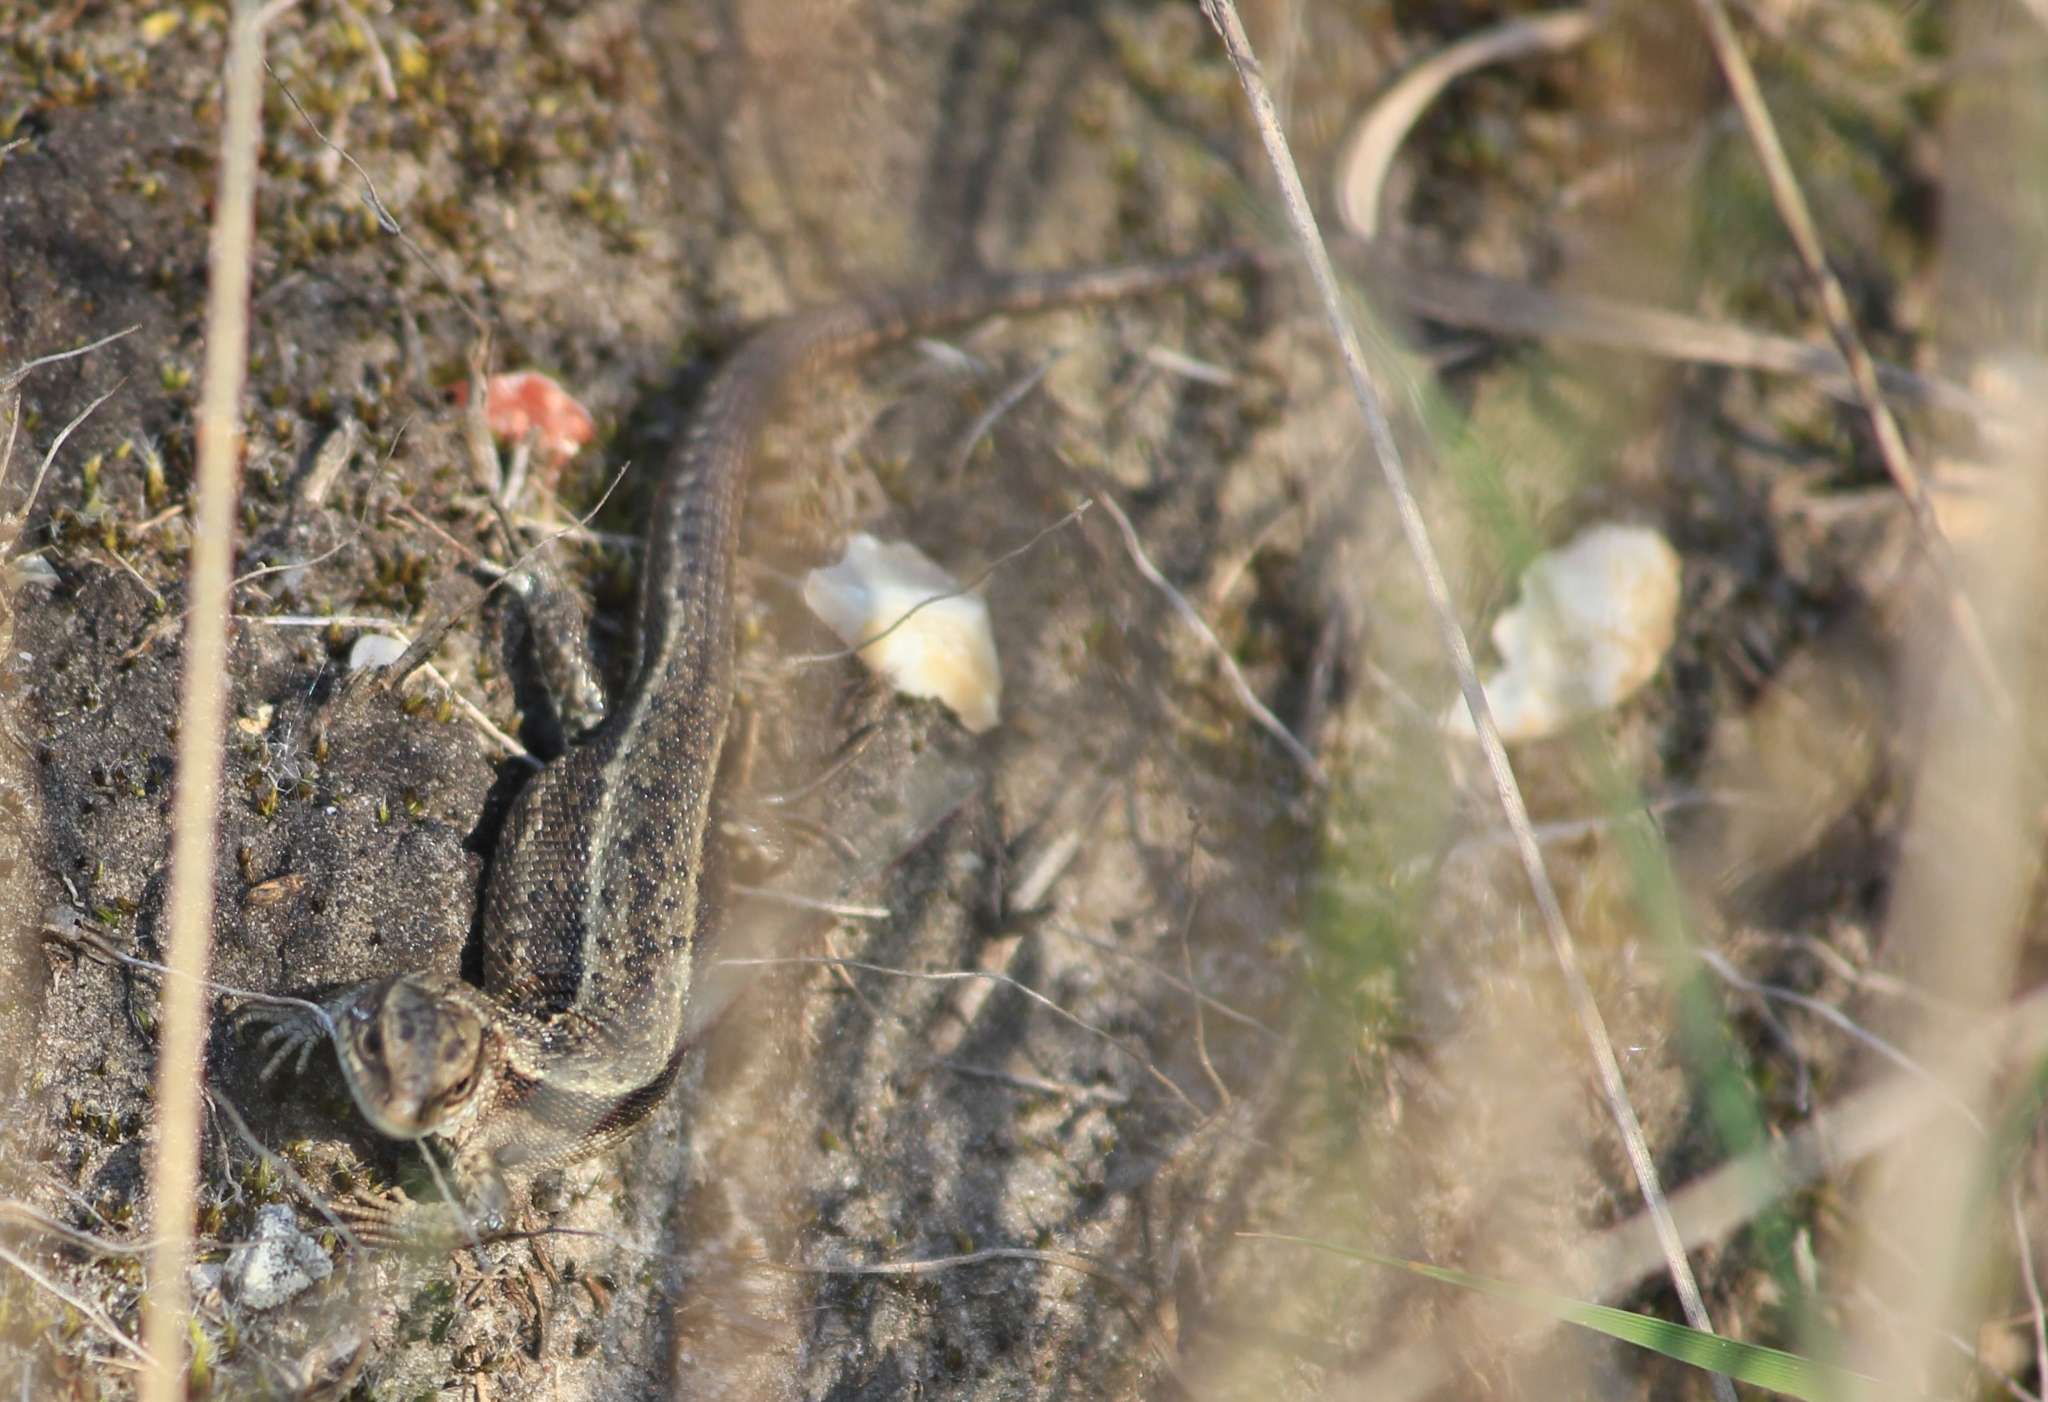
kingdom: Animalia
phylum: Chordata
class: Squamata
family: Lacertidae
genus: Zootoca
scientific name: Zootoca vivipara
